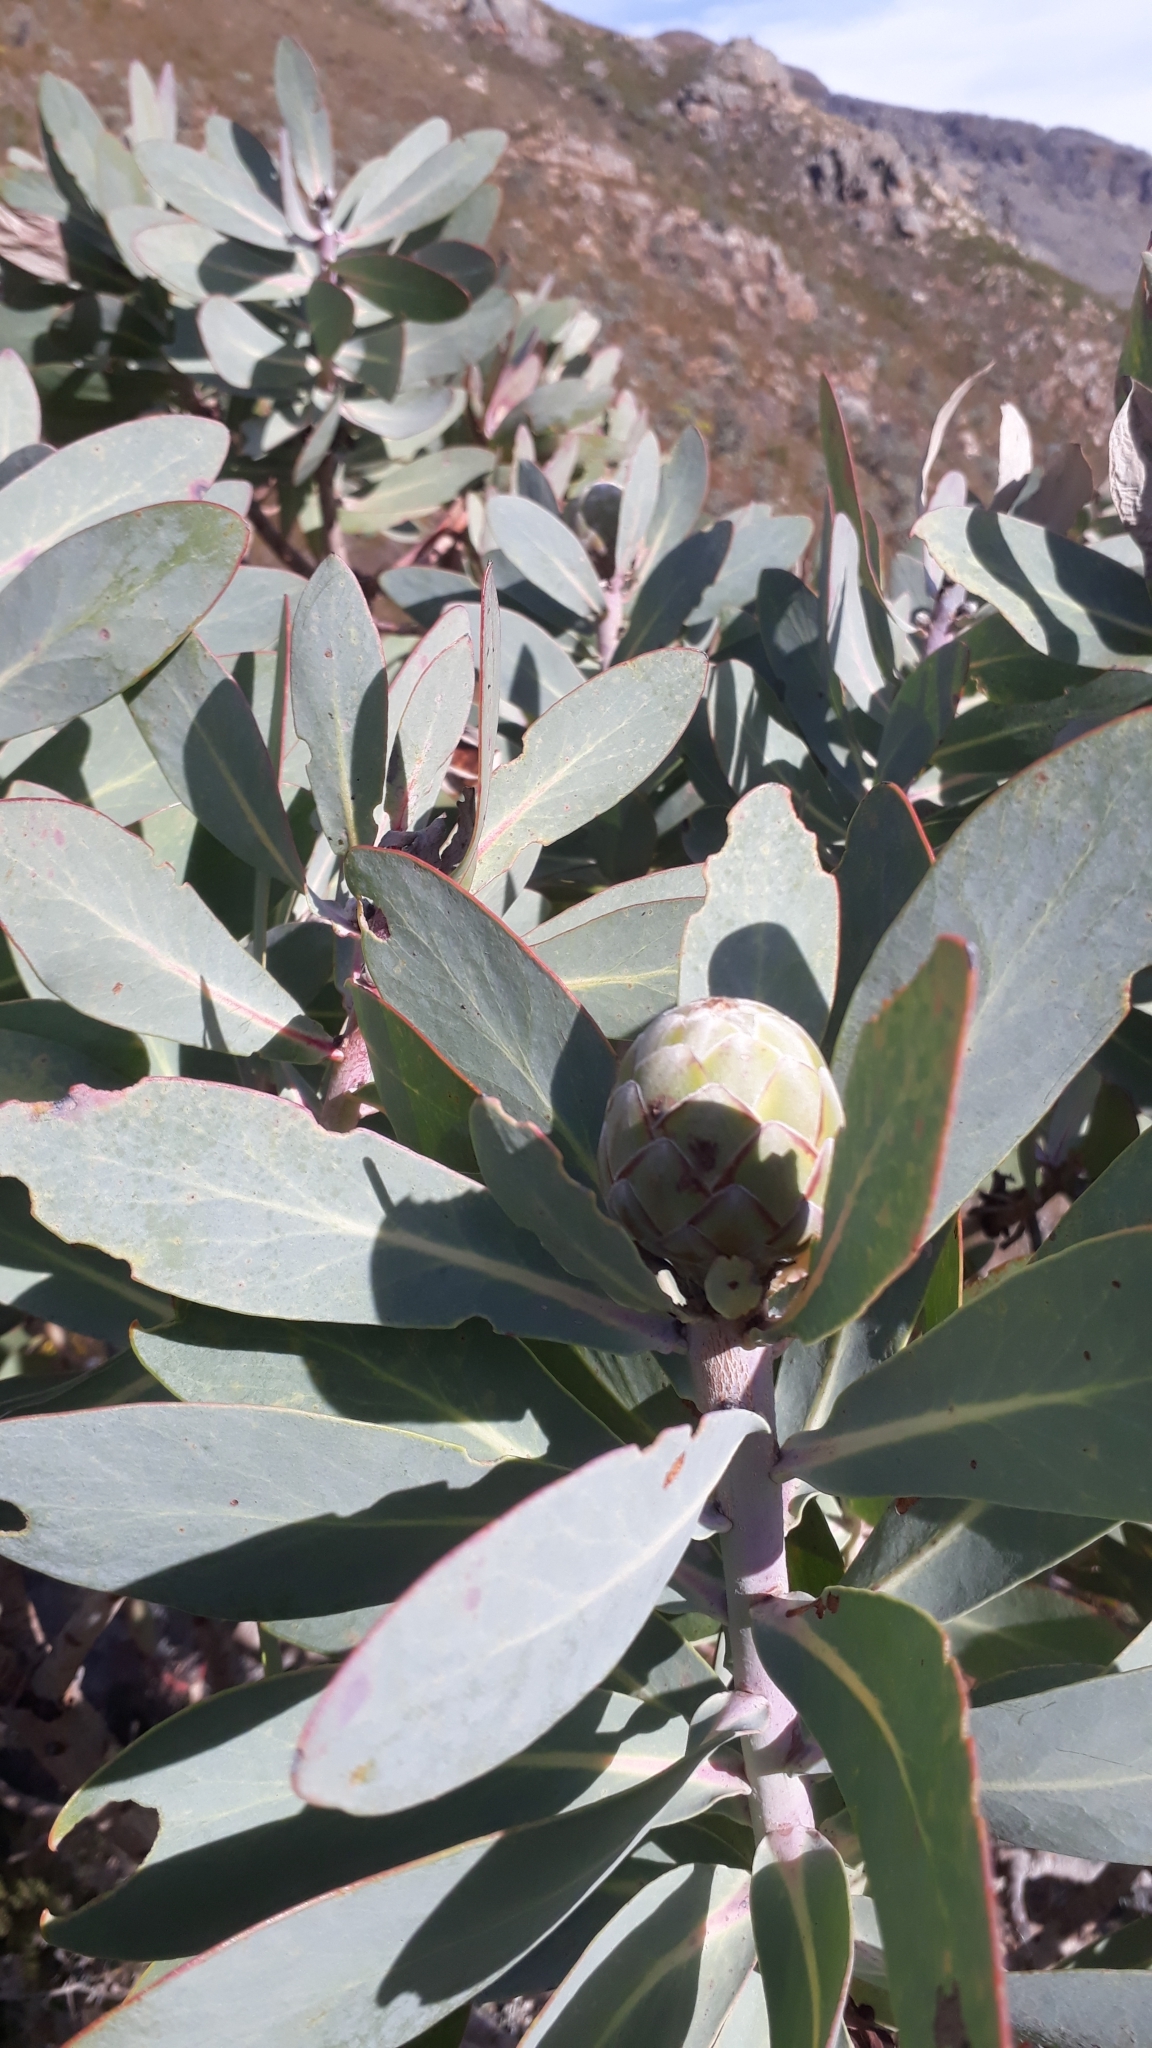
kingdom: Plantae
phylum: Tracheophyta
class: Magnoliopsida
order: Proteales
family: Proteaceae
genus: Protea
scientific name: Protea nitida
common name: Tree protea
